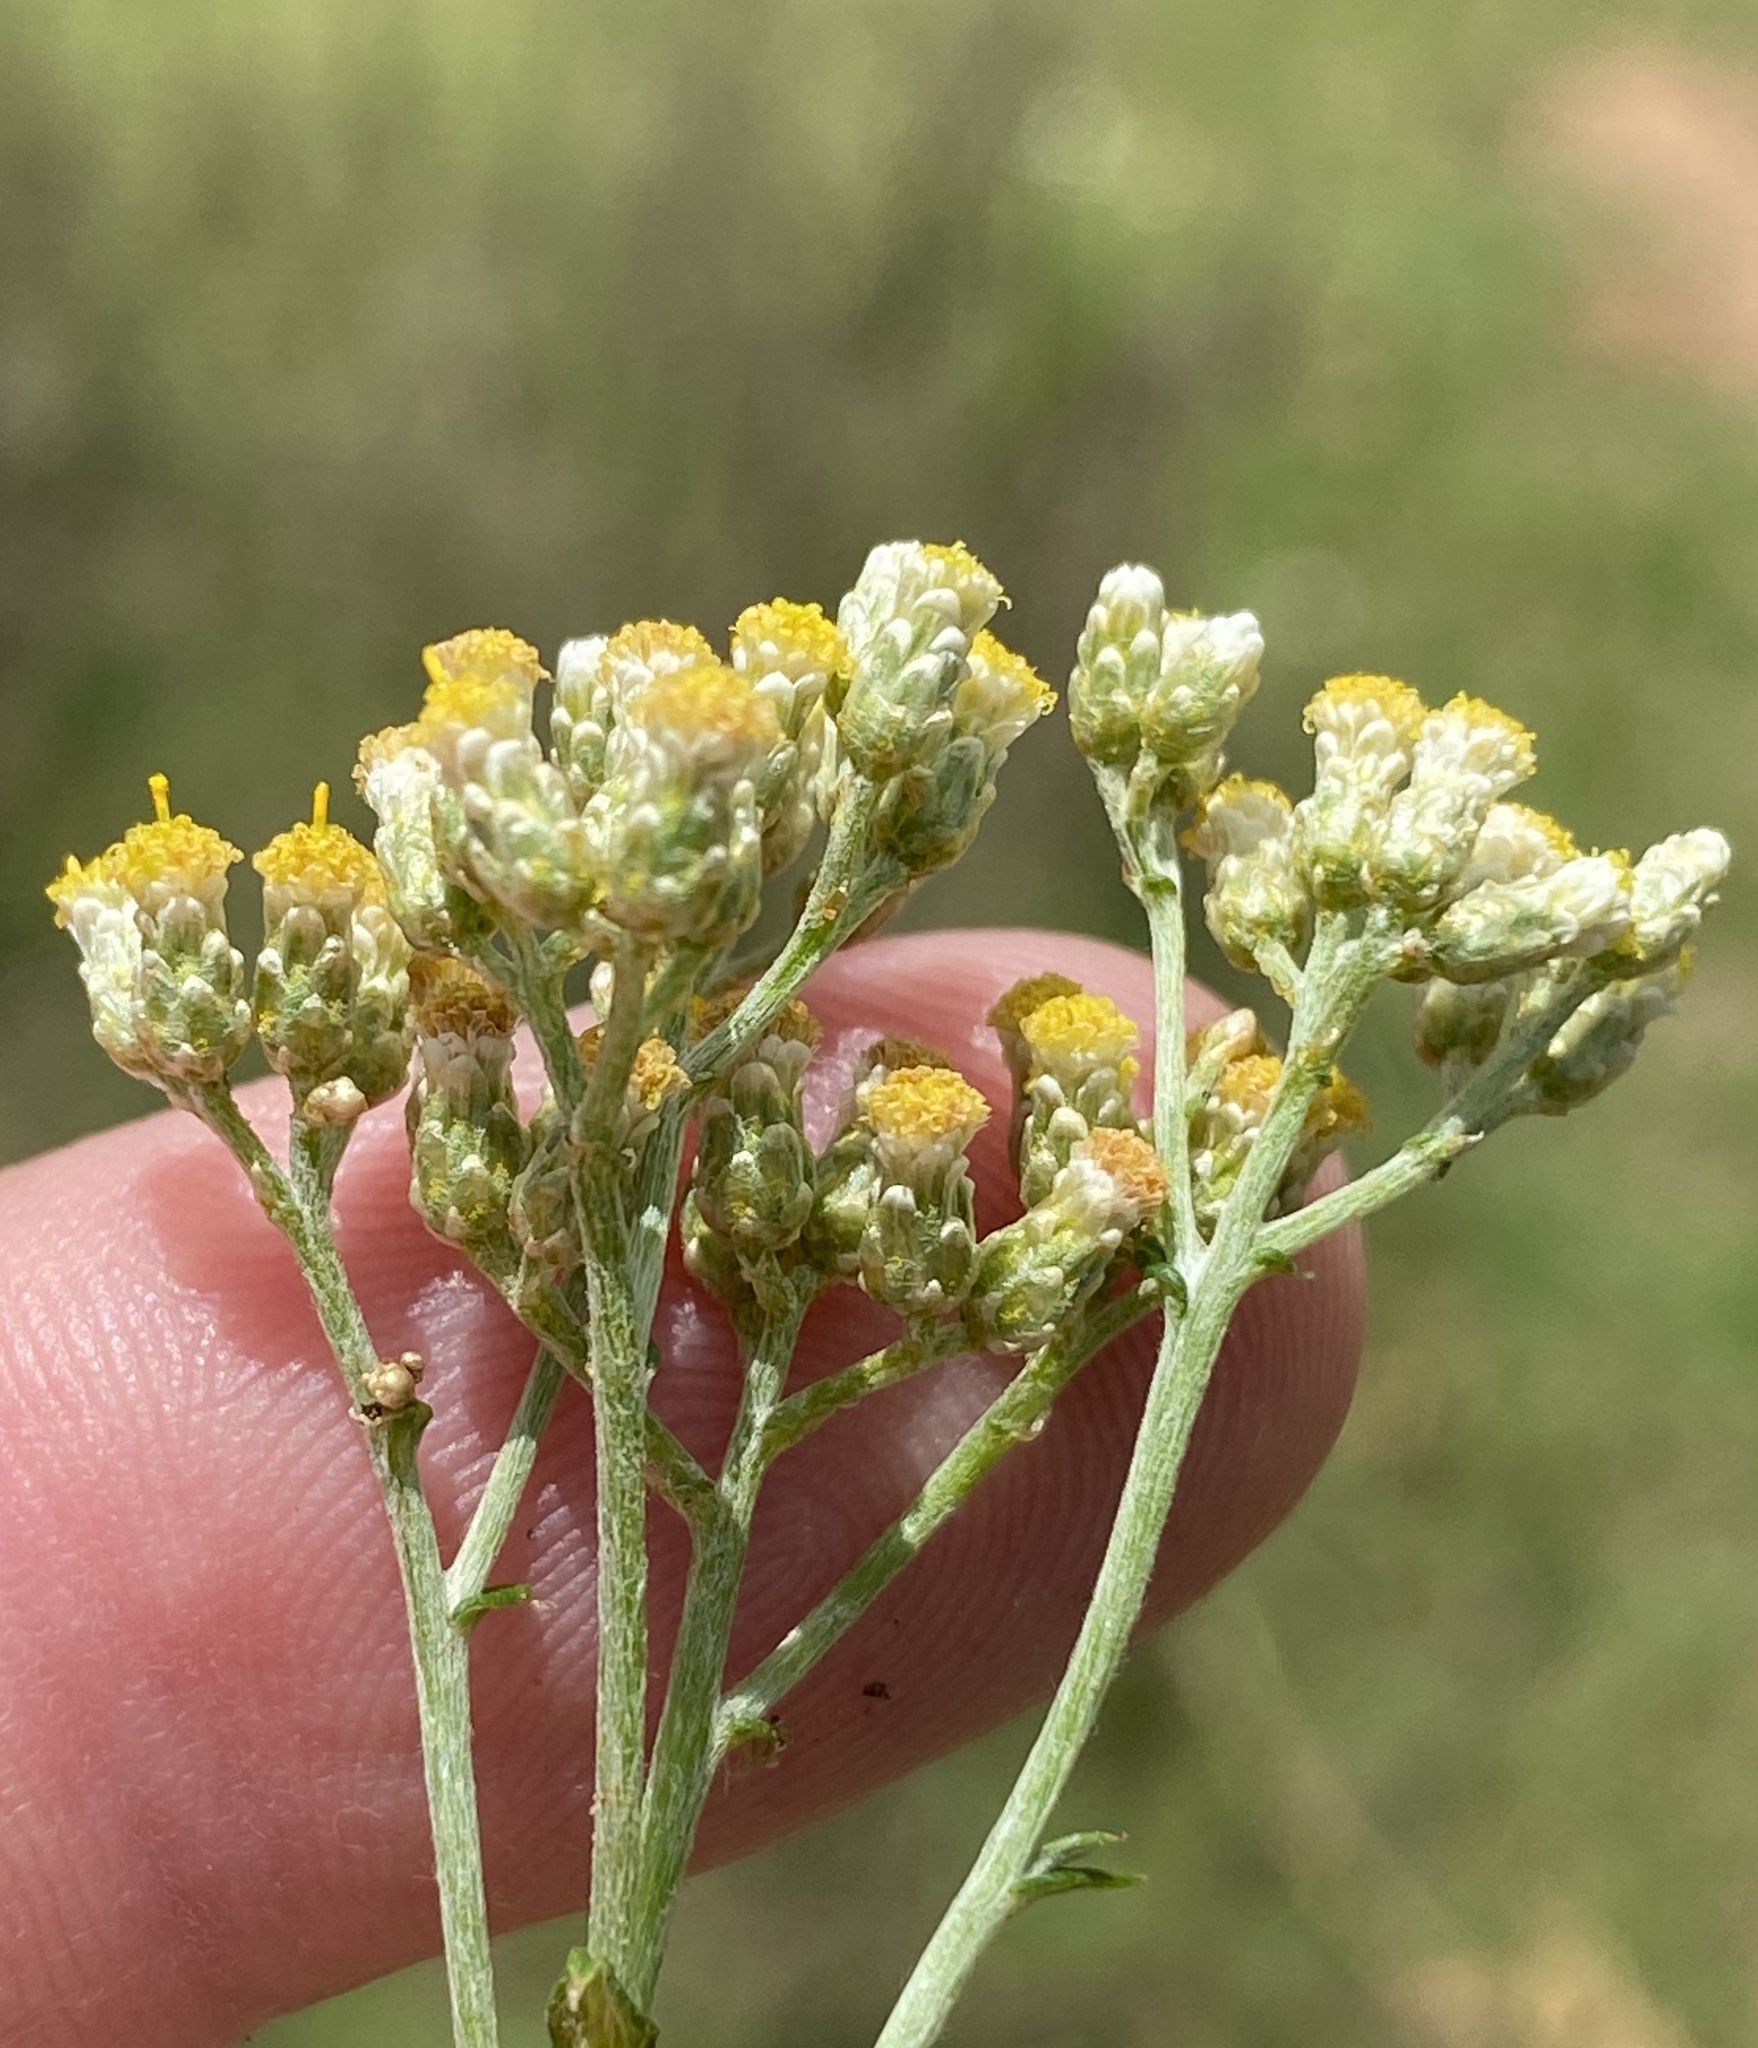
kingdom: Plantae
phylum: Tracheophyta
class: Magnoliopsida
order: Asterales
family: Asteraceae
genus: Helichrysum
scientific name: Helichrysum rosum
